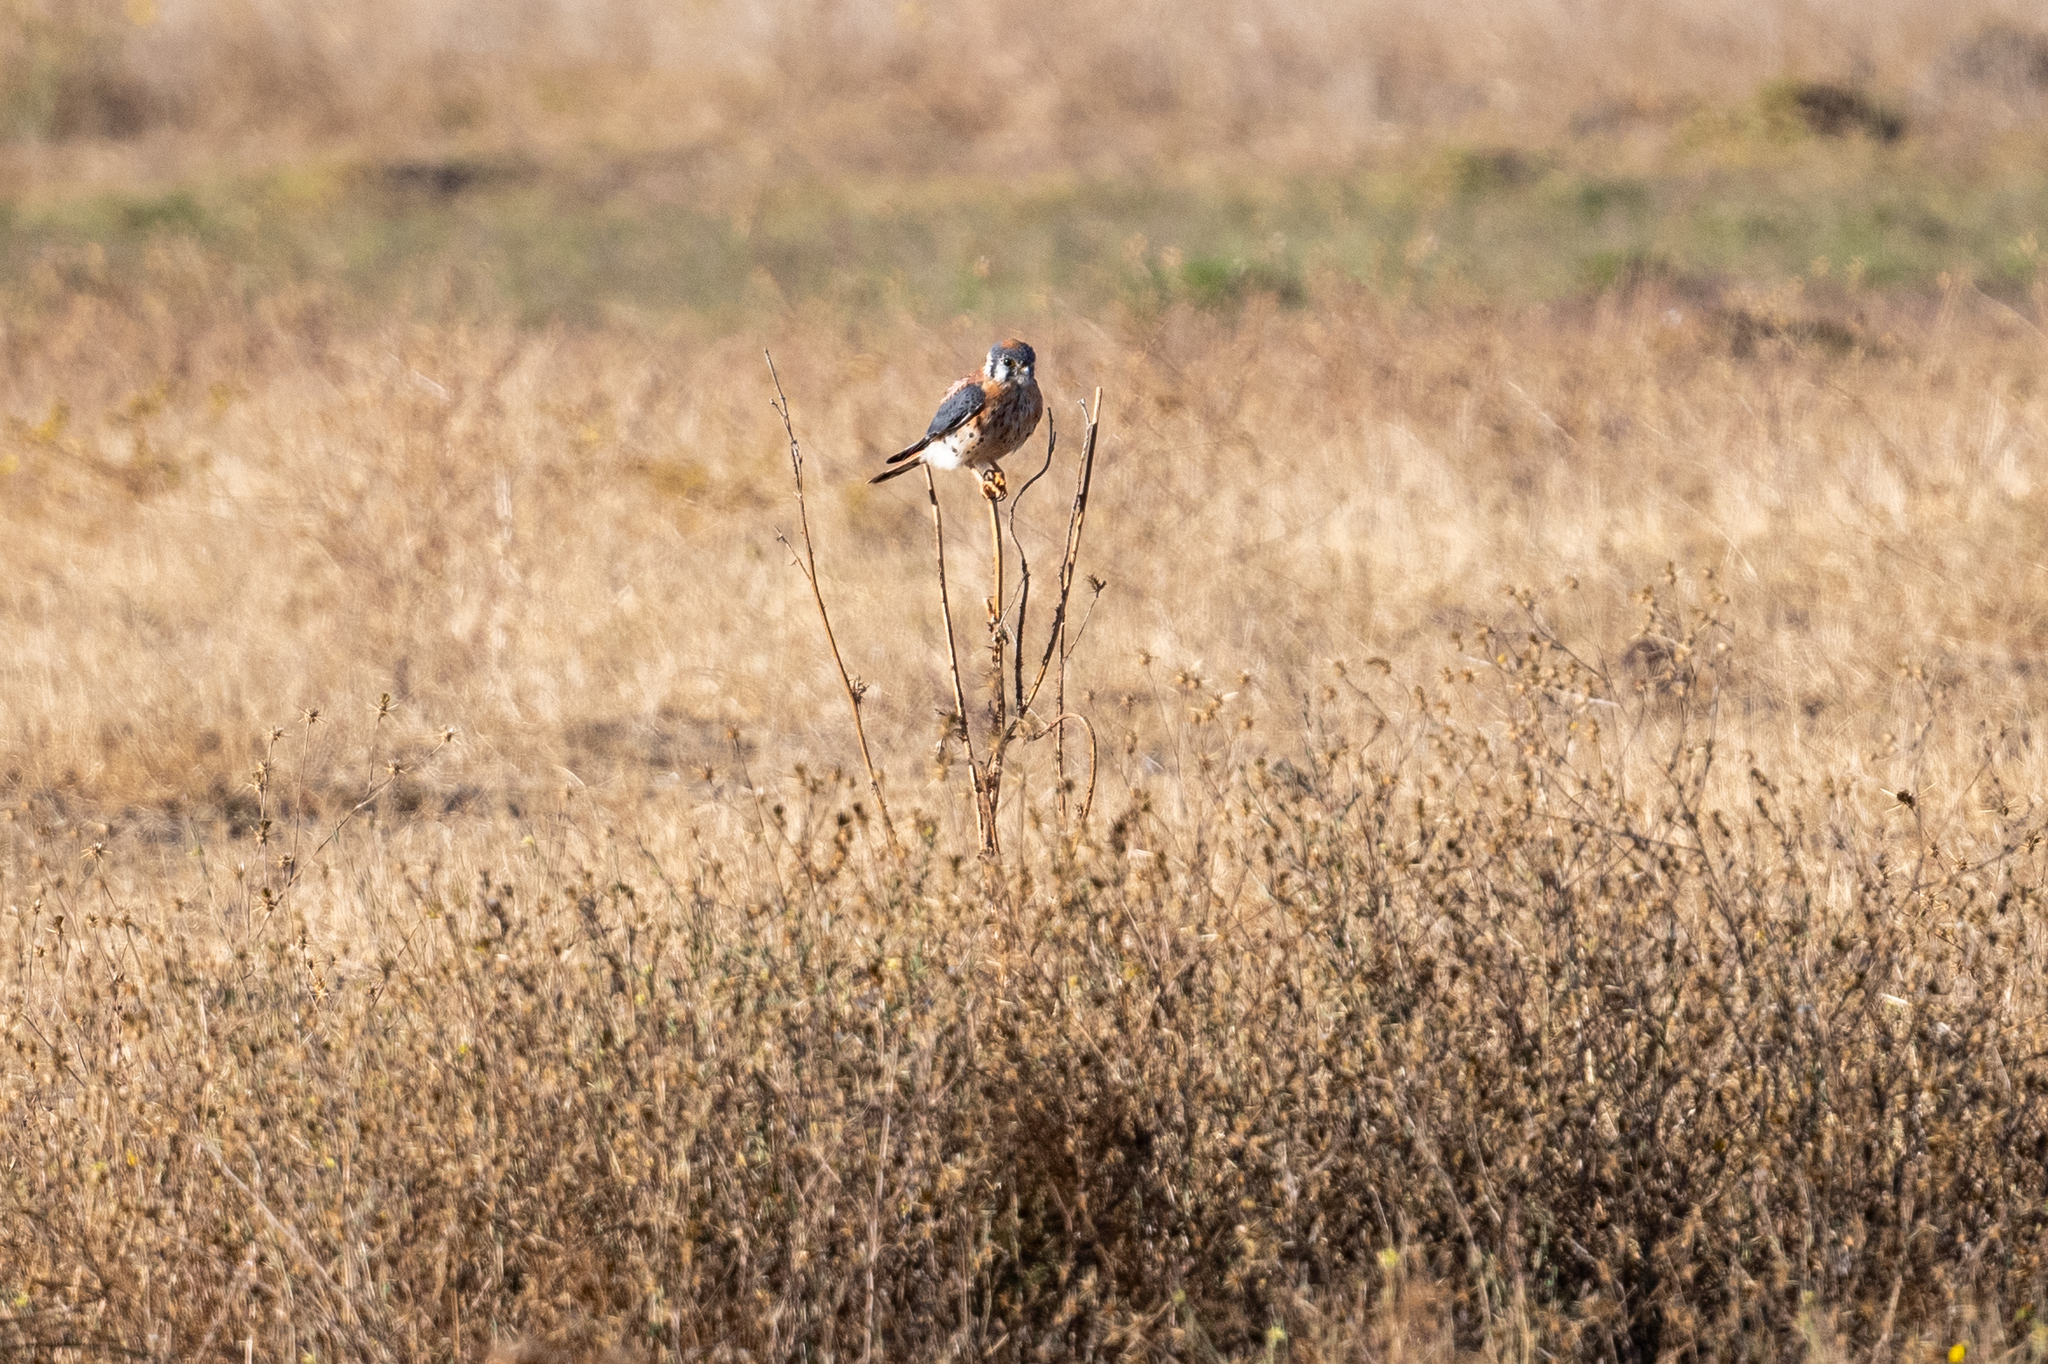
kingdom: Animalia
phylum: Chordata
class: Aves
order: Falconiformes
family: Falconidae
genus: Falco
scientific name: Falco sparverius
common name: American kestrel
